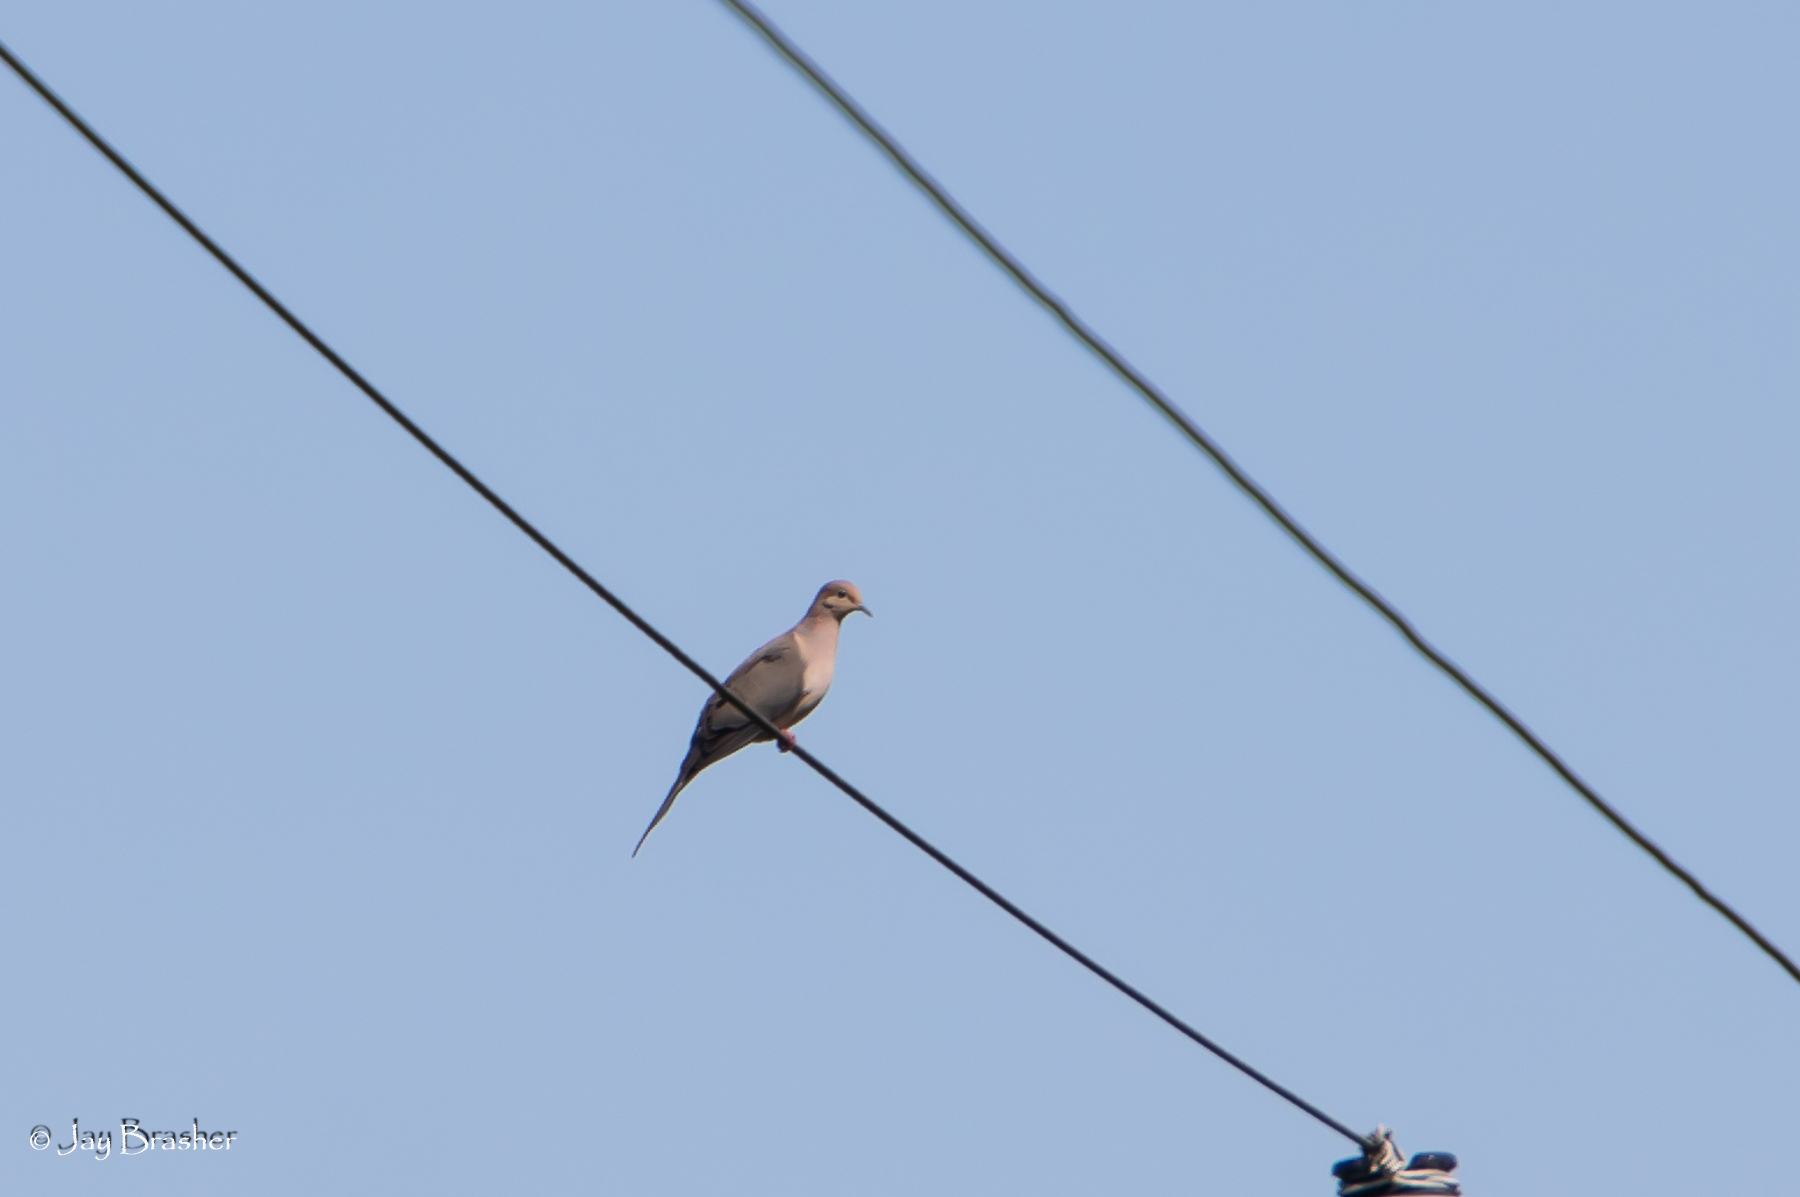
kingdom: Animalia
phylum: Chordata
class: Aves
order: Columbiformes
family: Columbidae
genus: Zenaida
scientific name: Zenaida macroura
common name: Mourning dove
